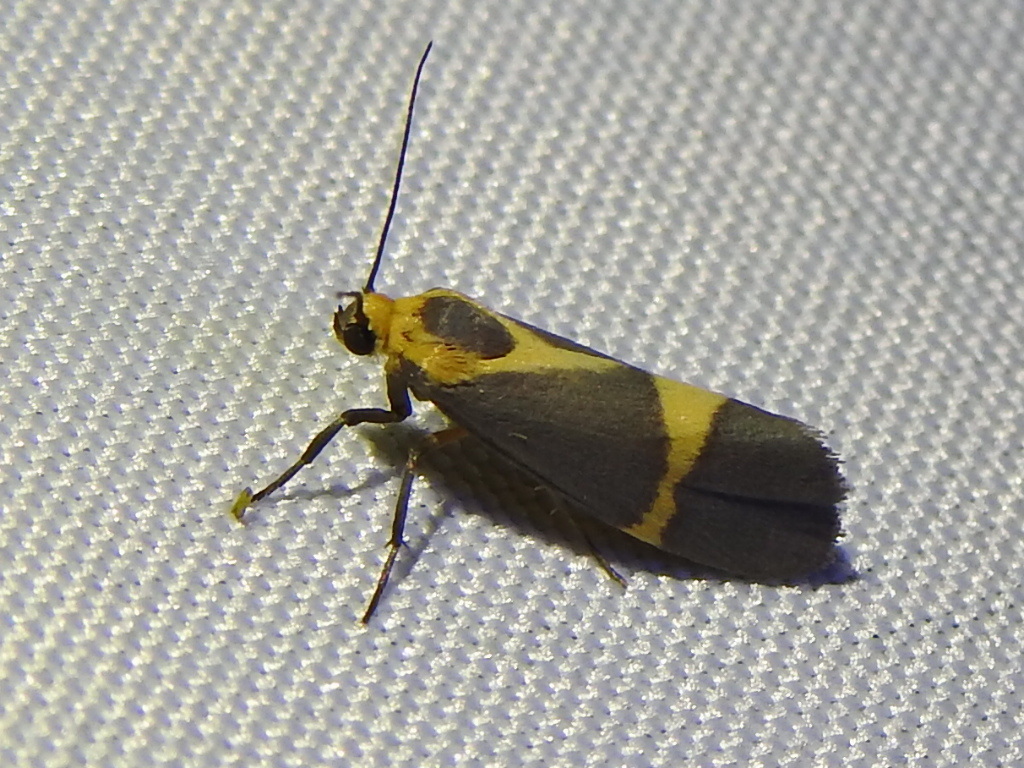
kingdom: Animalia
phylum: Arthropoda
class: Insecta
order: Lepidoptera
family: Erebidae
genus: Cisthene
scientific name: Cisthene tenuifascia
